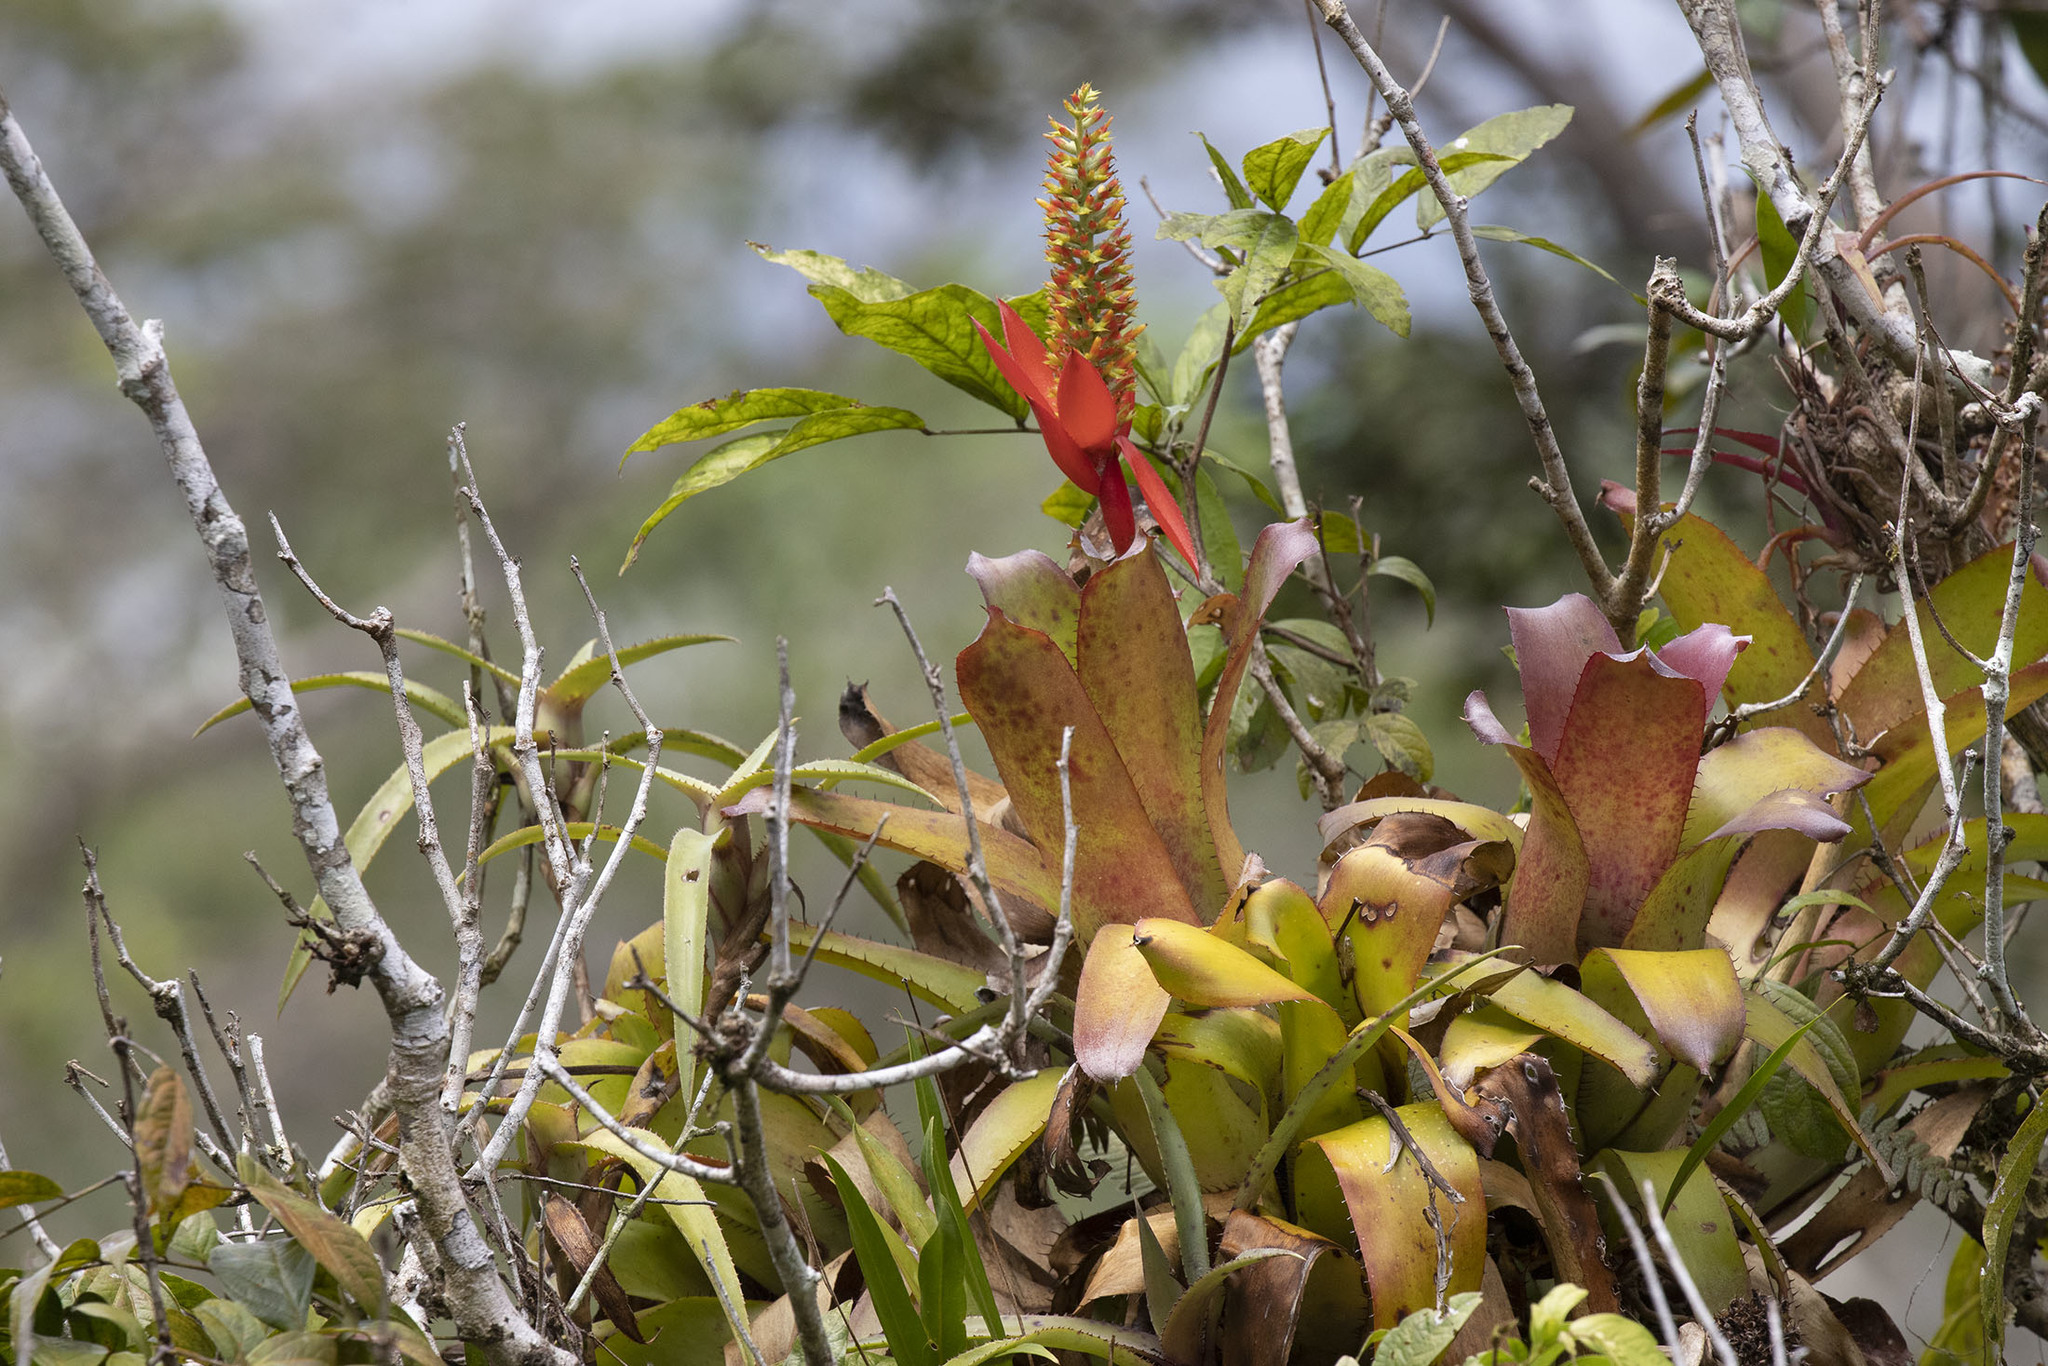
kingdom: Plantae
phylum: Tracheophyta
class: Liliopsida
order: Poales
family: Bromeliaceae
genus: Aechmea
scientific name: Aechmea mertensii
